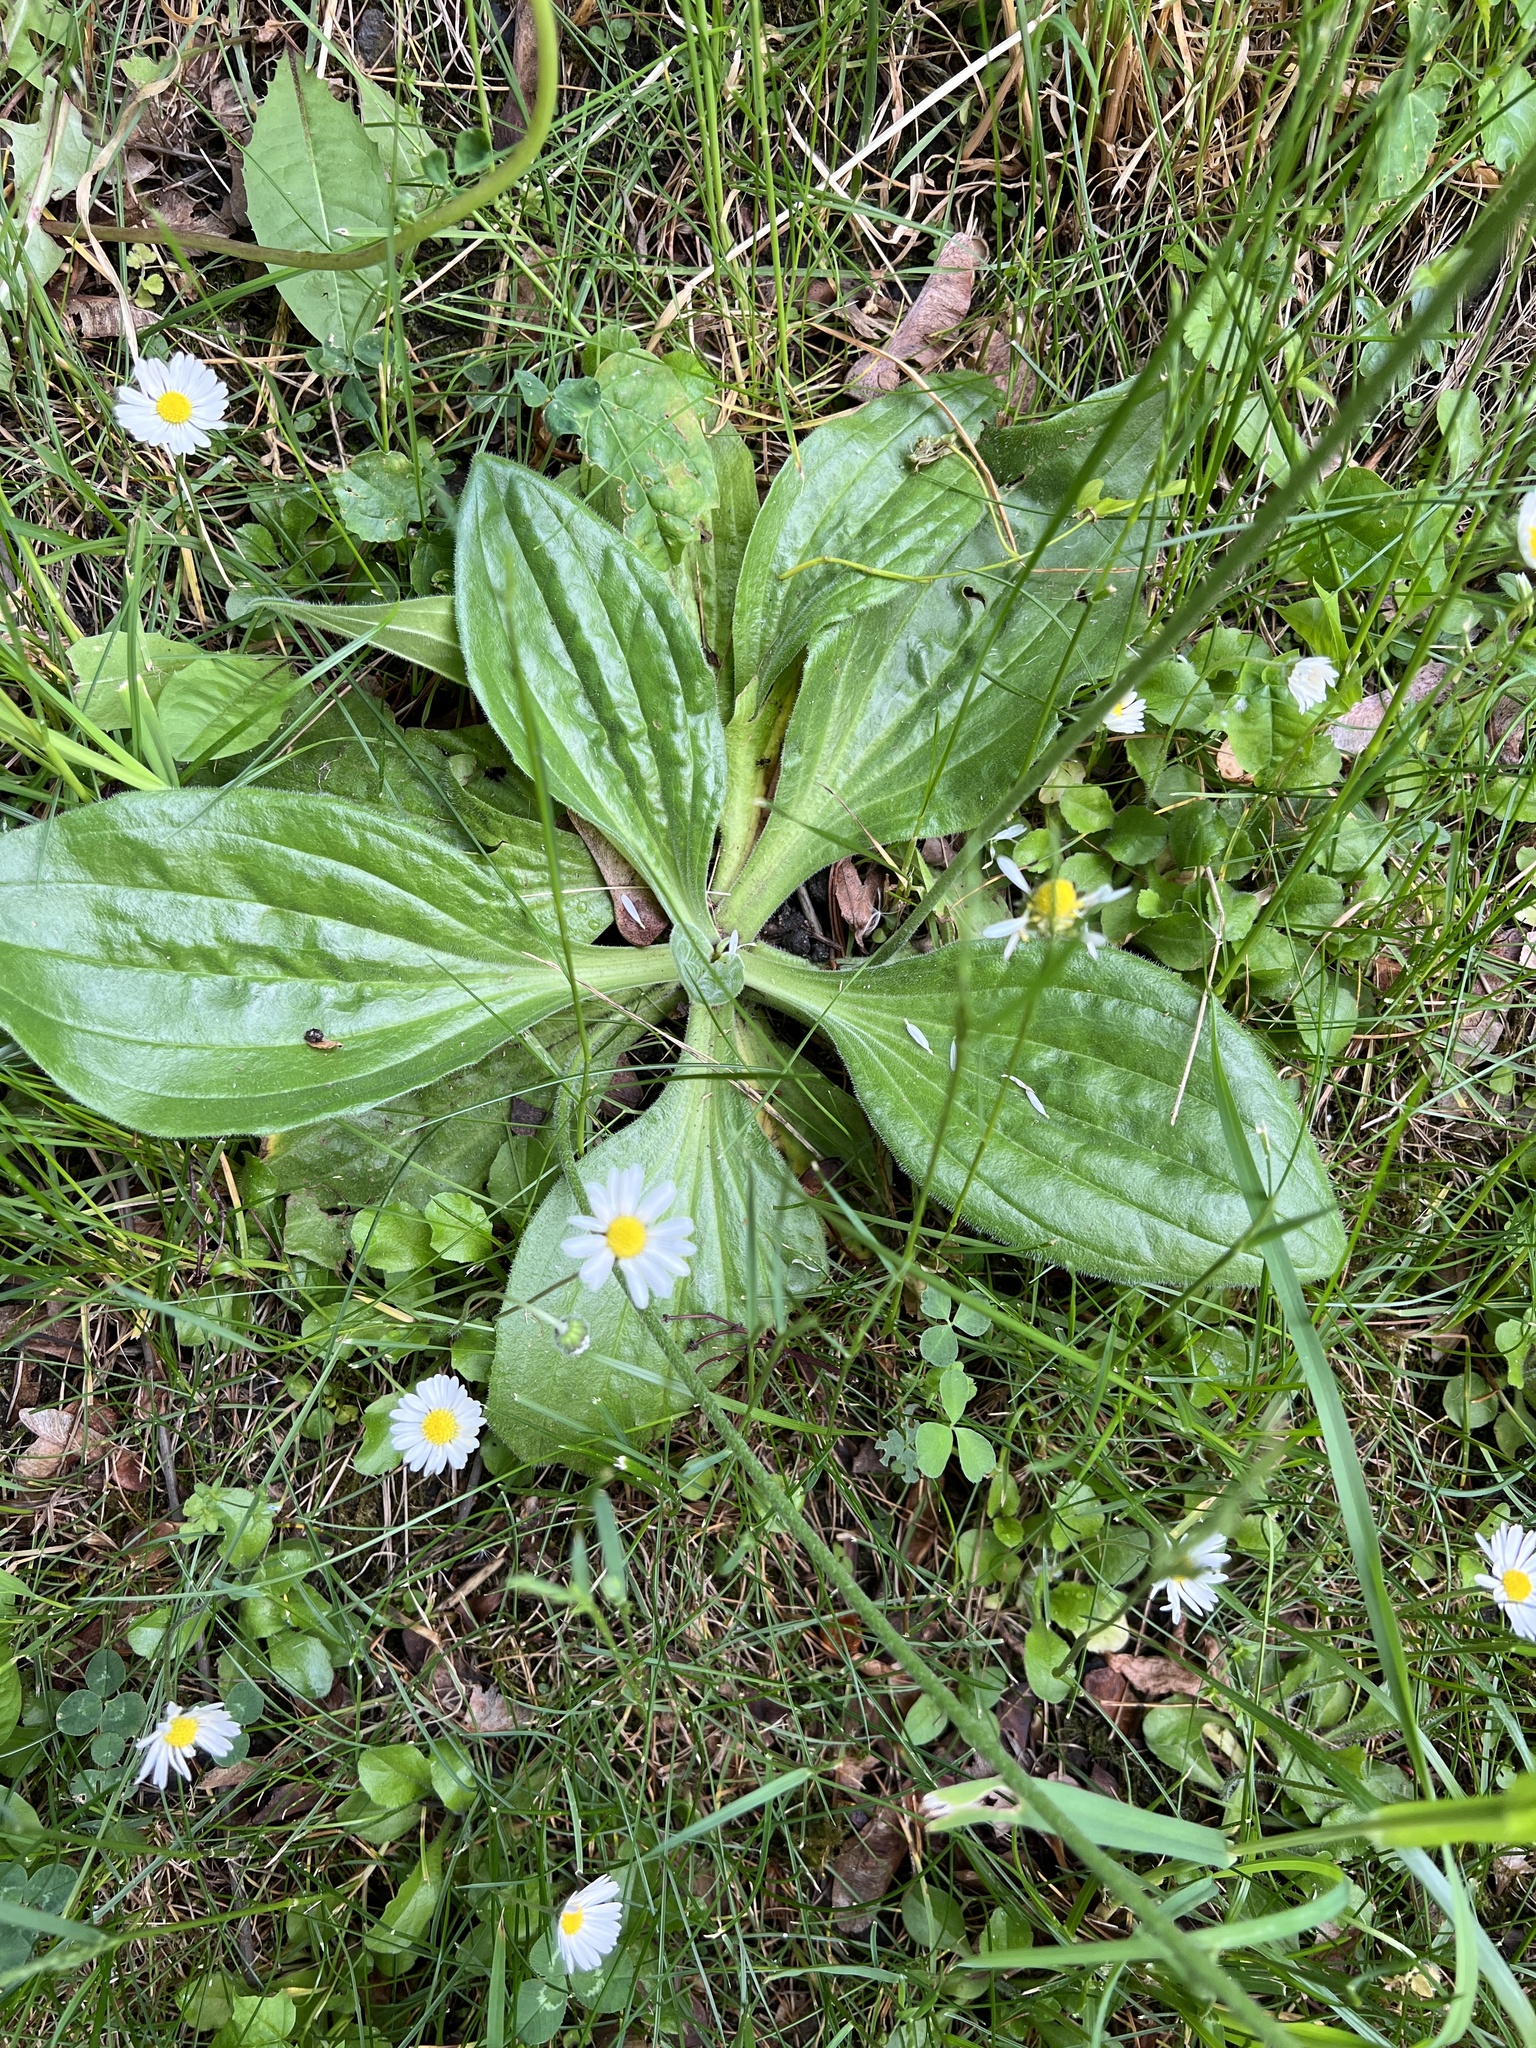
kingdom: Plantae
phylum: Tracheophyta
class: Magnoliopsida
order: Lamiales
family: Plantaginaceae
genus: Plantago
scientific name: Plantago media
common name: Hoary plantain
